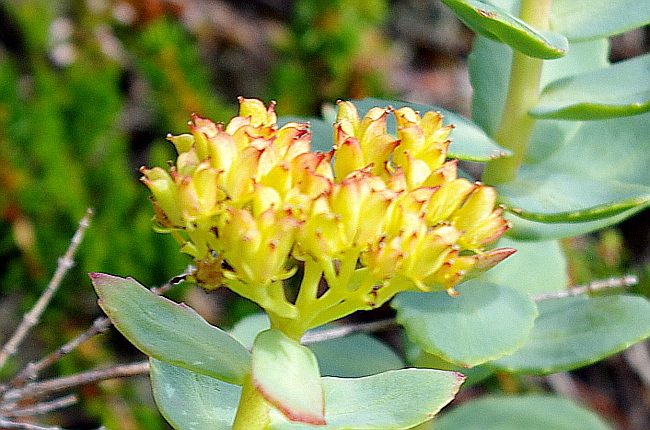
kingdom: Plantae
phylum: Tracheophyta
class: Magnoliopsida
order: Saxifragales
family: Crassulaceae
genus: Rhodiola
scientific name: Rhodiola rosea
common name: Roseroot
